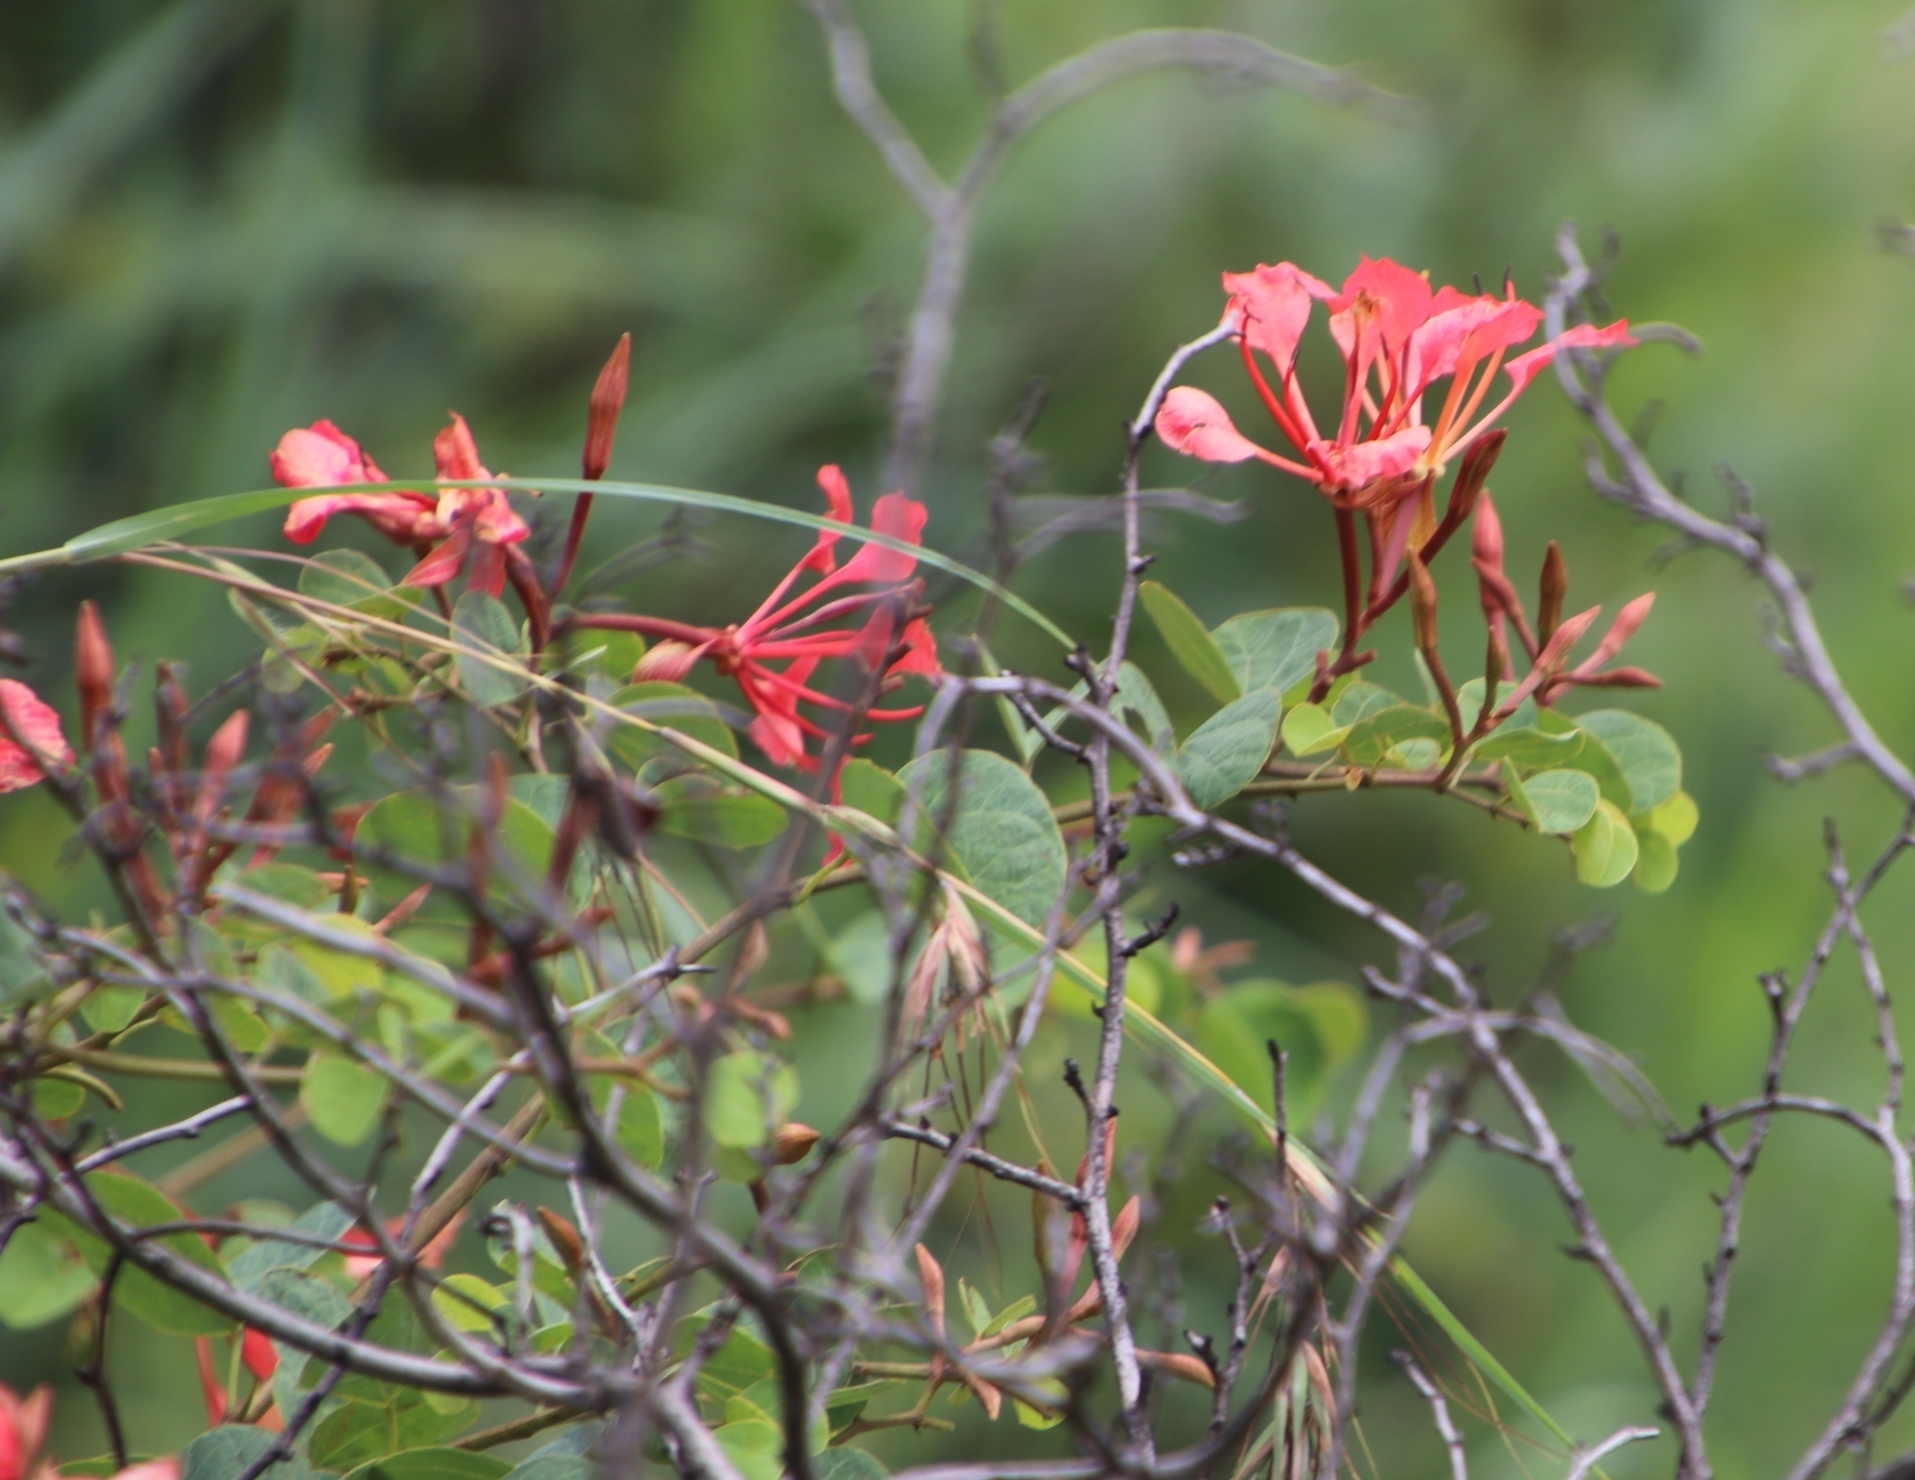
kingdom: Plantae
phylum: Tracheophyta
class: Magnoliopsida
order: Fabales
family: Fabaceae
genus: Bauhinia
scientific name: Bauhinia galpinii
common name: African plume
